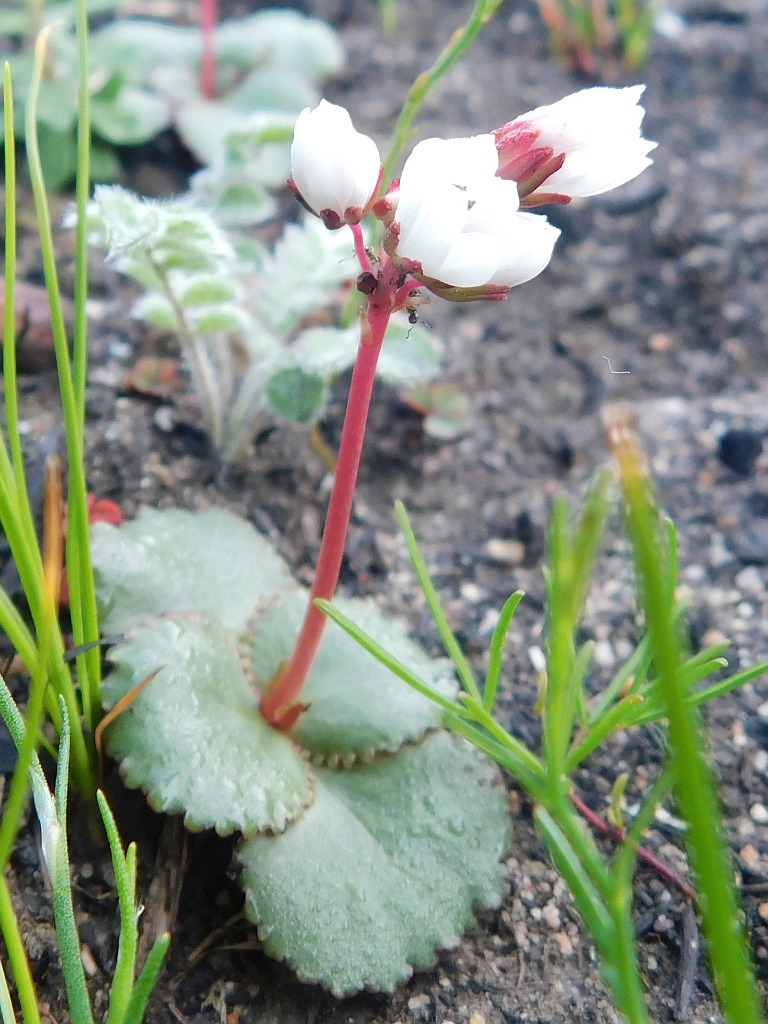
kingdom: Plantae
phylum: Tracheophyta
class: Magnoliopsida
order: Saxifragales
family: Crassulaceae
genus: Crassula
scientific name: Crassula capensis
